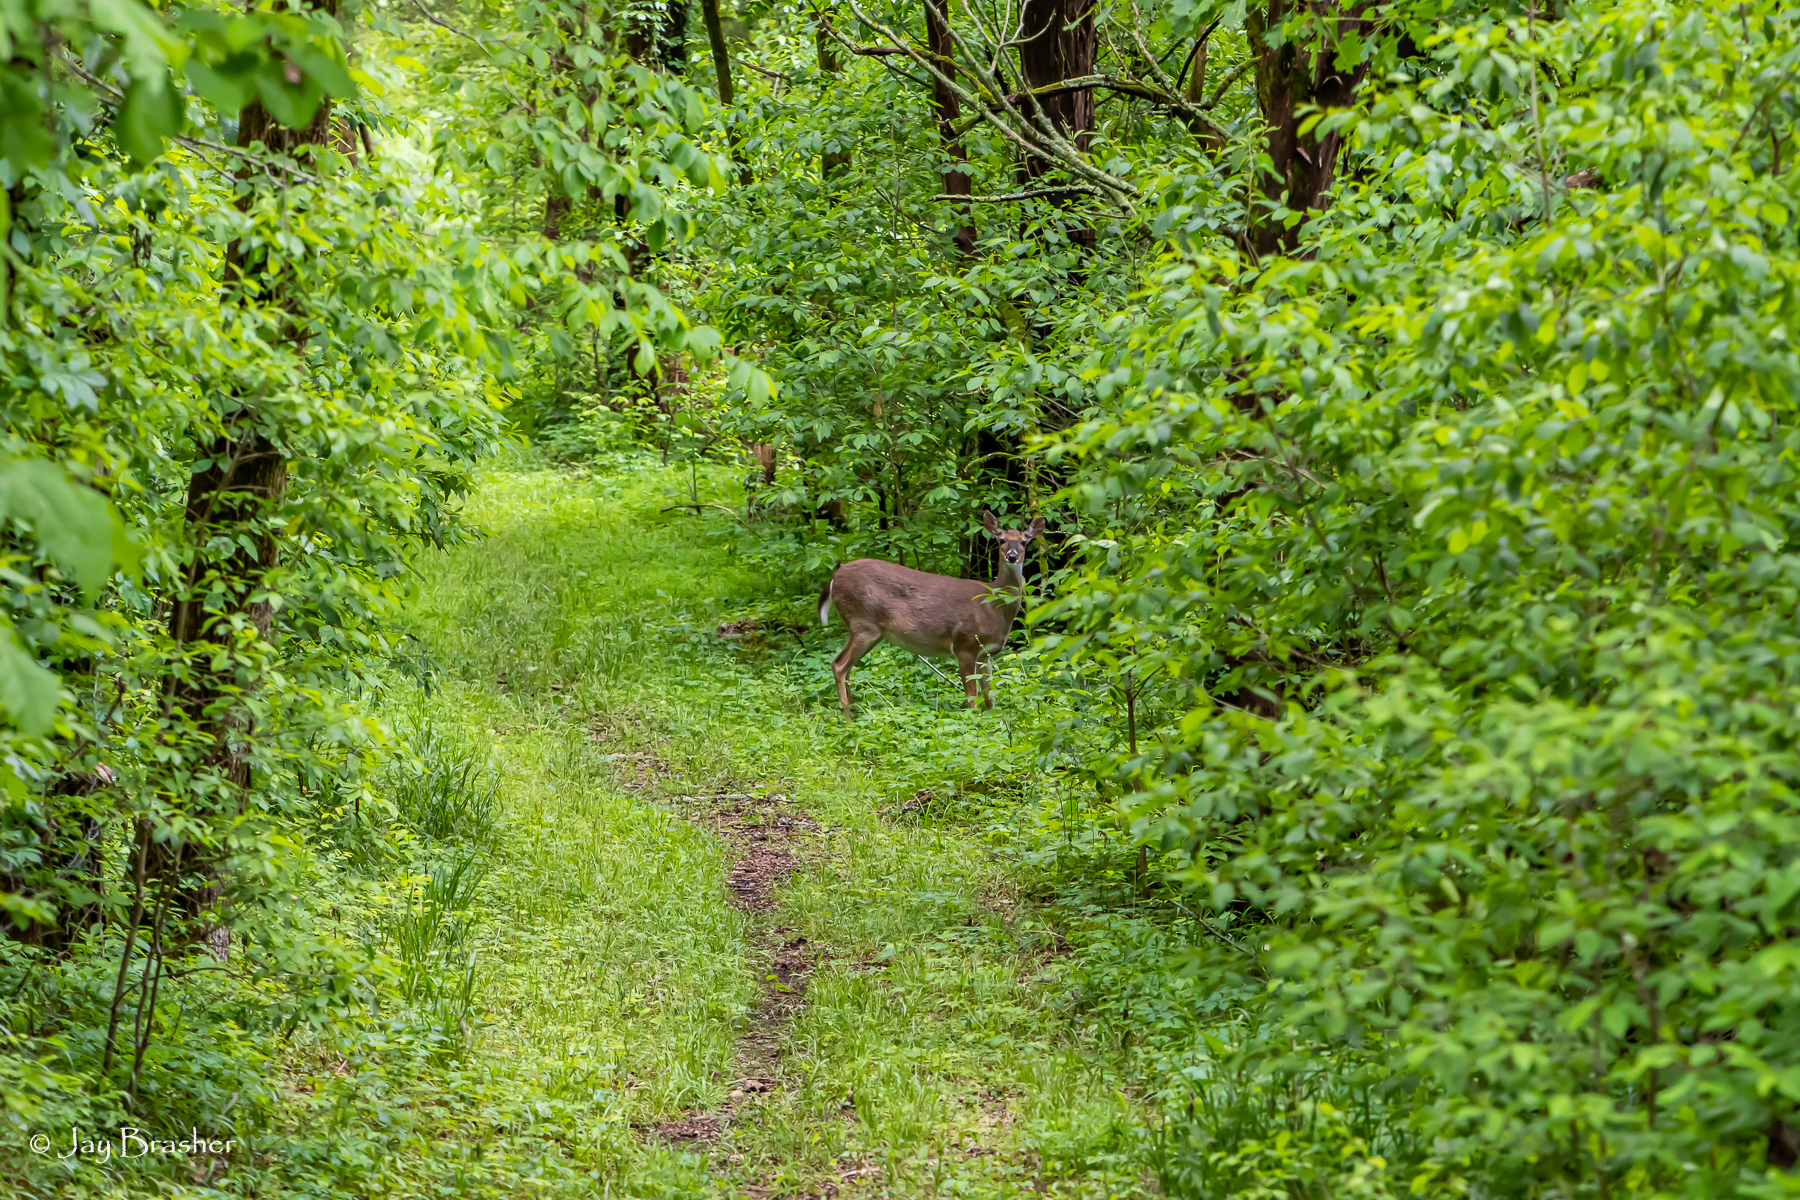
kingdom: Animalia
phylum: Chordata
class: Mammalia
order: Artiodactyla
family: Cervidae
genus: Odocoileus
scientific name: Odocoileus virginianus
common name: White-tailed deer
